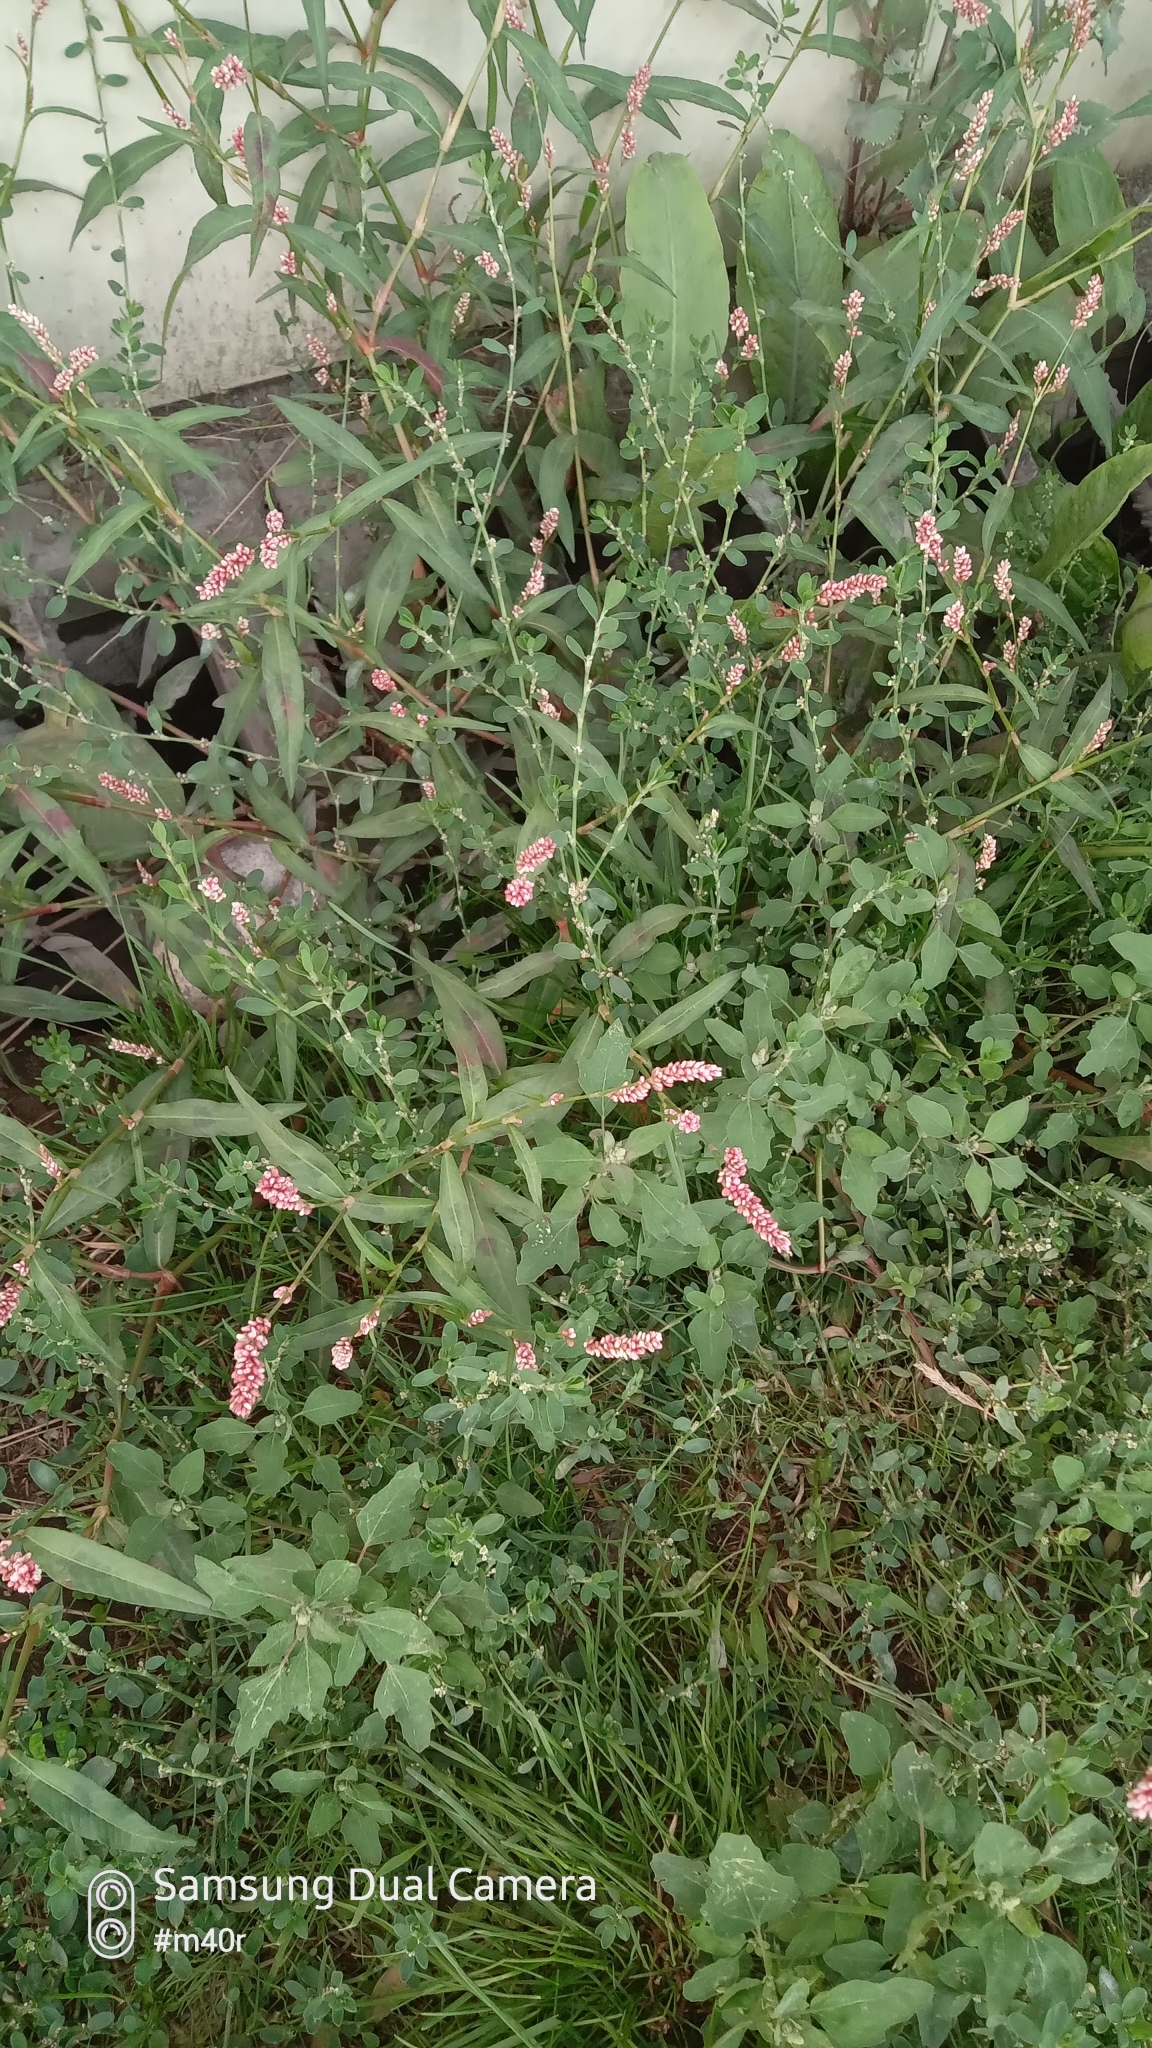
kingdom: Plantae
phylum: Tracheophyta
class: Magnoliopsida
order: Caryophyllales
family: Polygonaceae
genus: Persicaria
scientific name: Persicaria hydropiper
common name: Water-pepper
